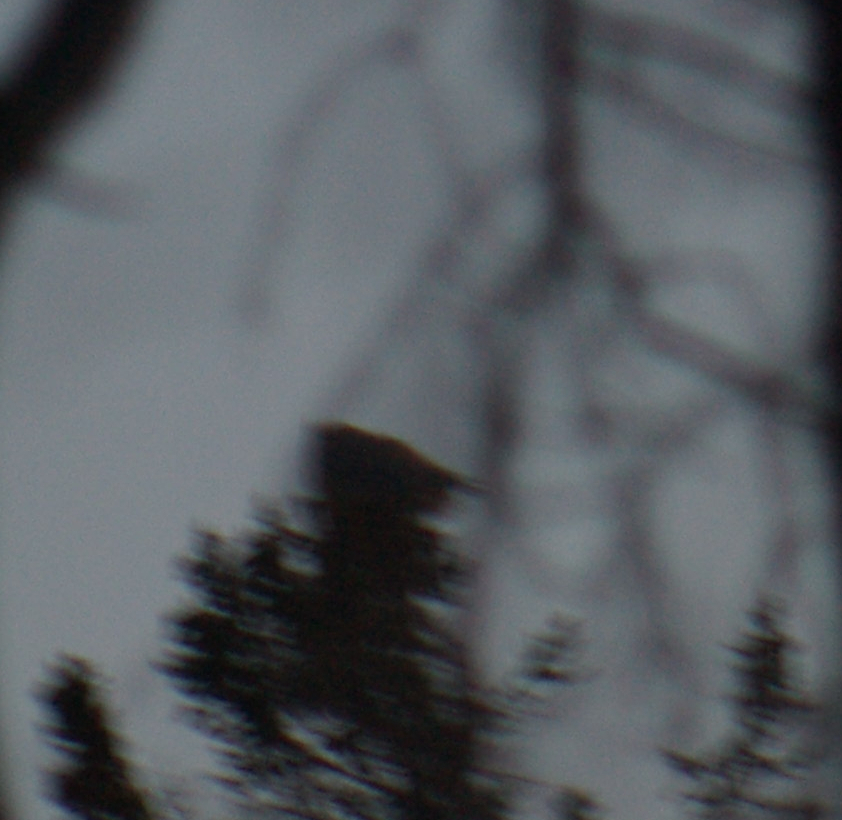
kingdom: Animalia
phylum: Chordata
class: Aves
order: Strigiformes
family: Strigidae
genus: Bubo
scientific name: Bubo virginianus
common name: Great horned owl
